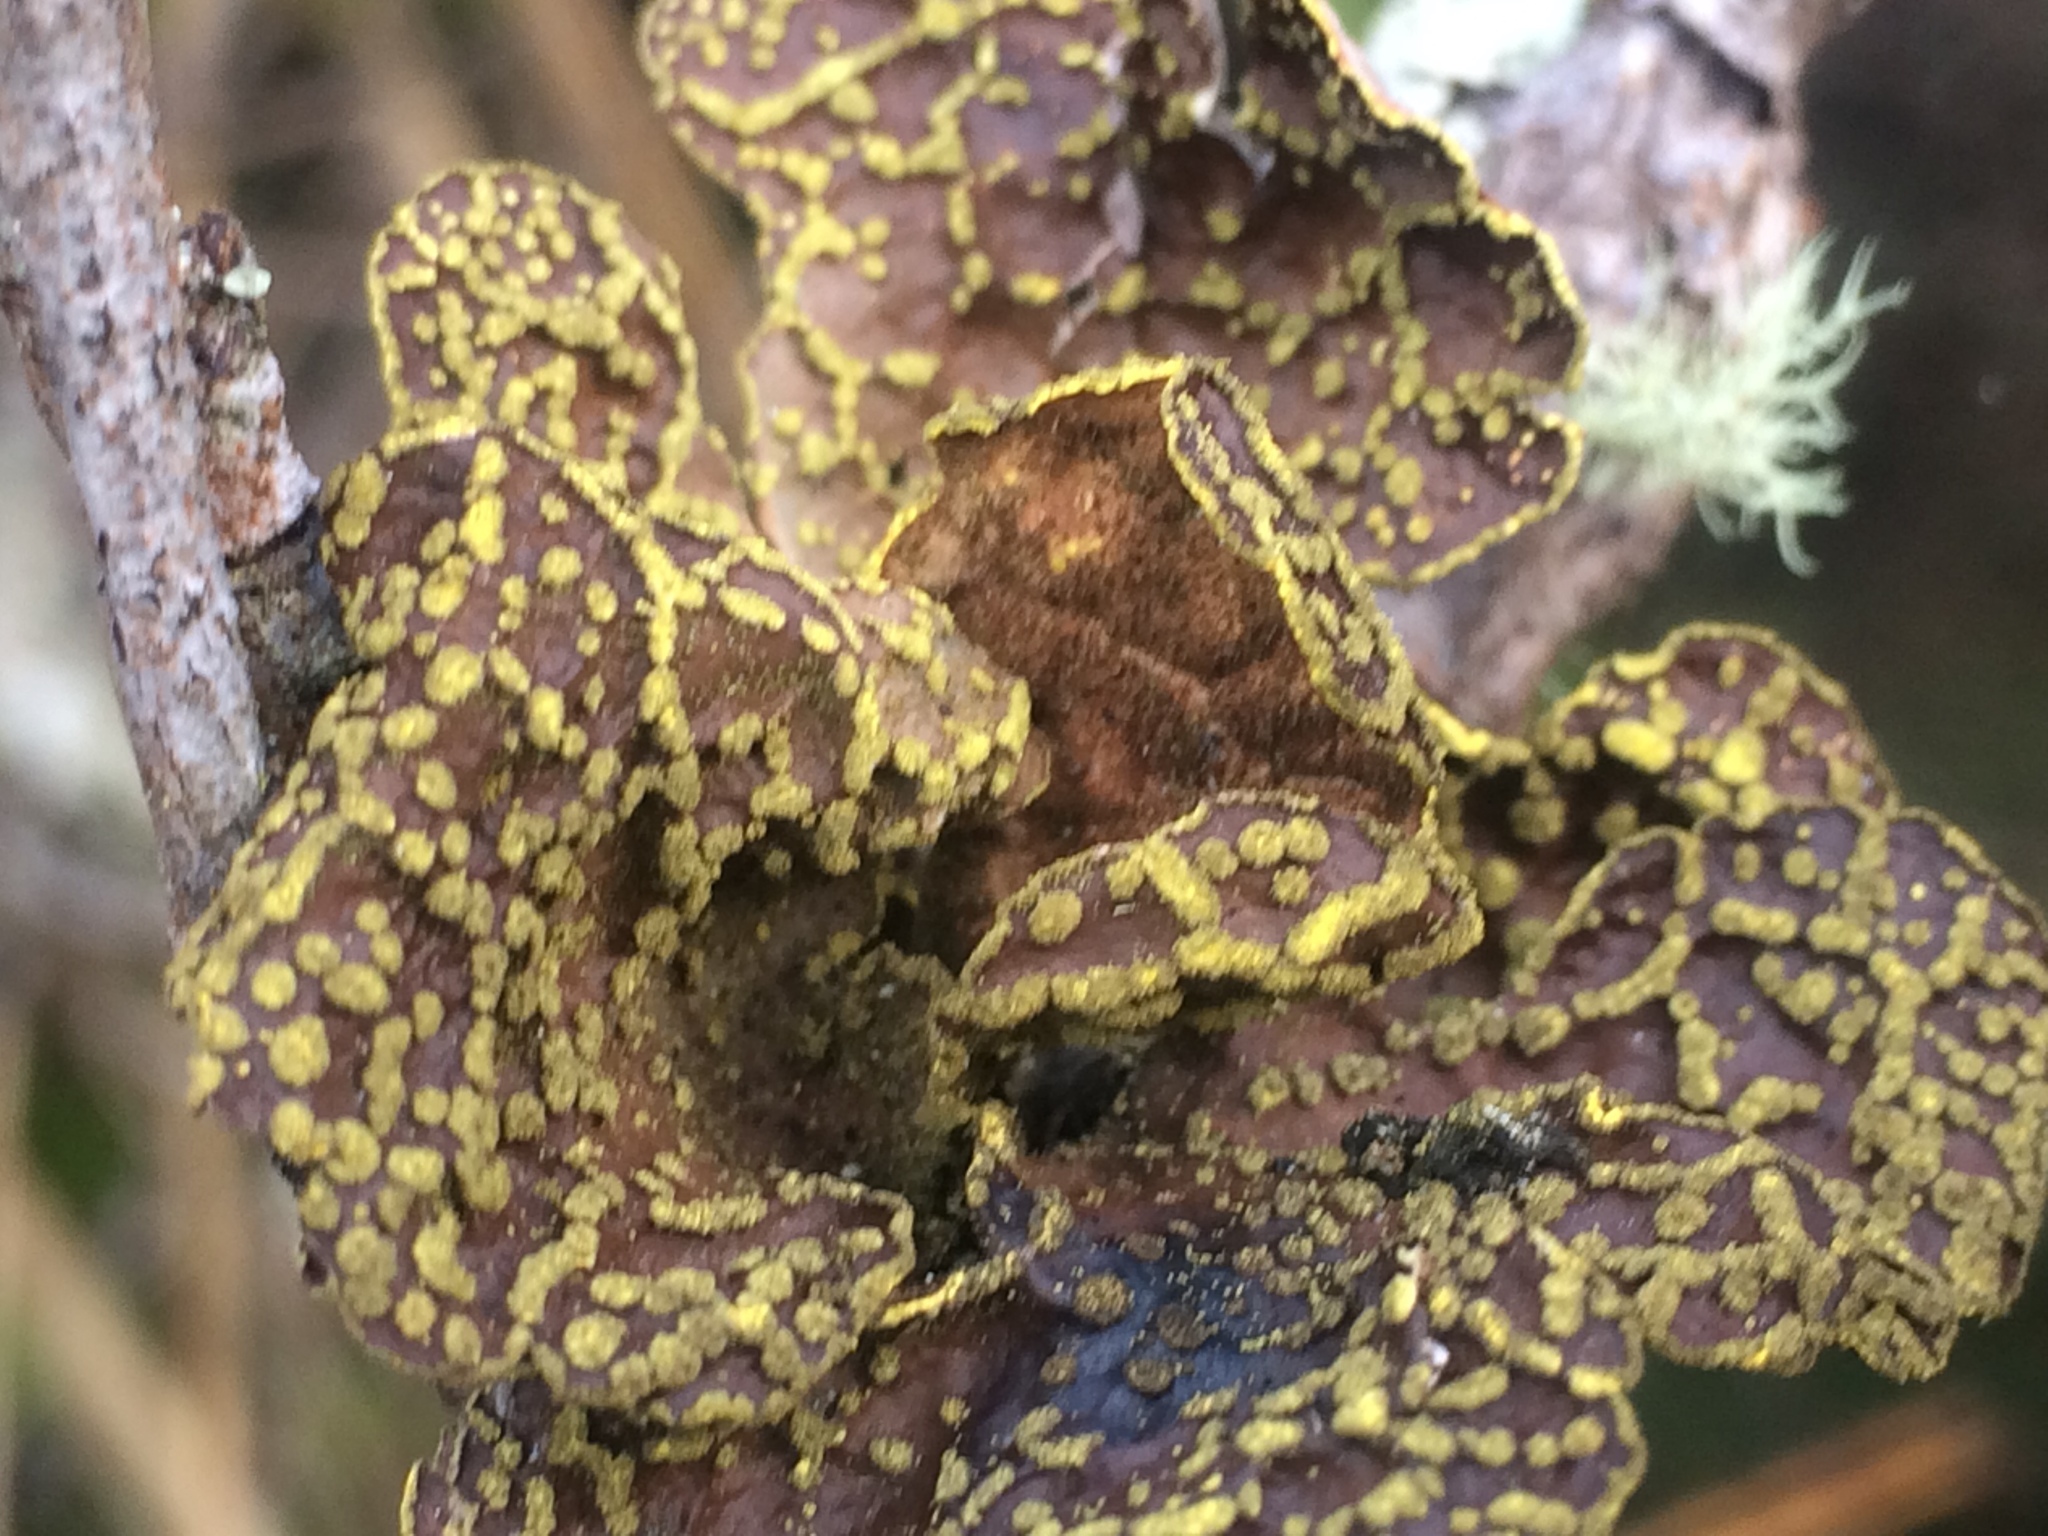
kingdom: Fungi
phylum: Ascomycota
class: Lecanoromycetes
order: Peltigerales
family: Lobariaceae
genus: Pseudocyphellaria
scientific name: Pseudocyphellaria crocata
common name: Golden specklebelly
